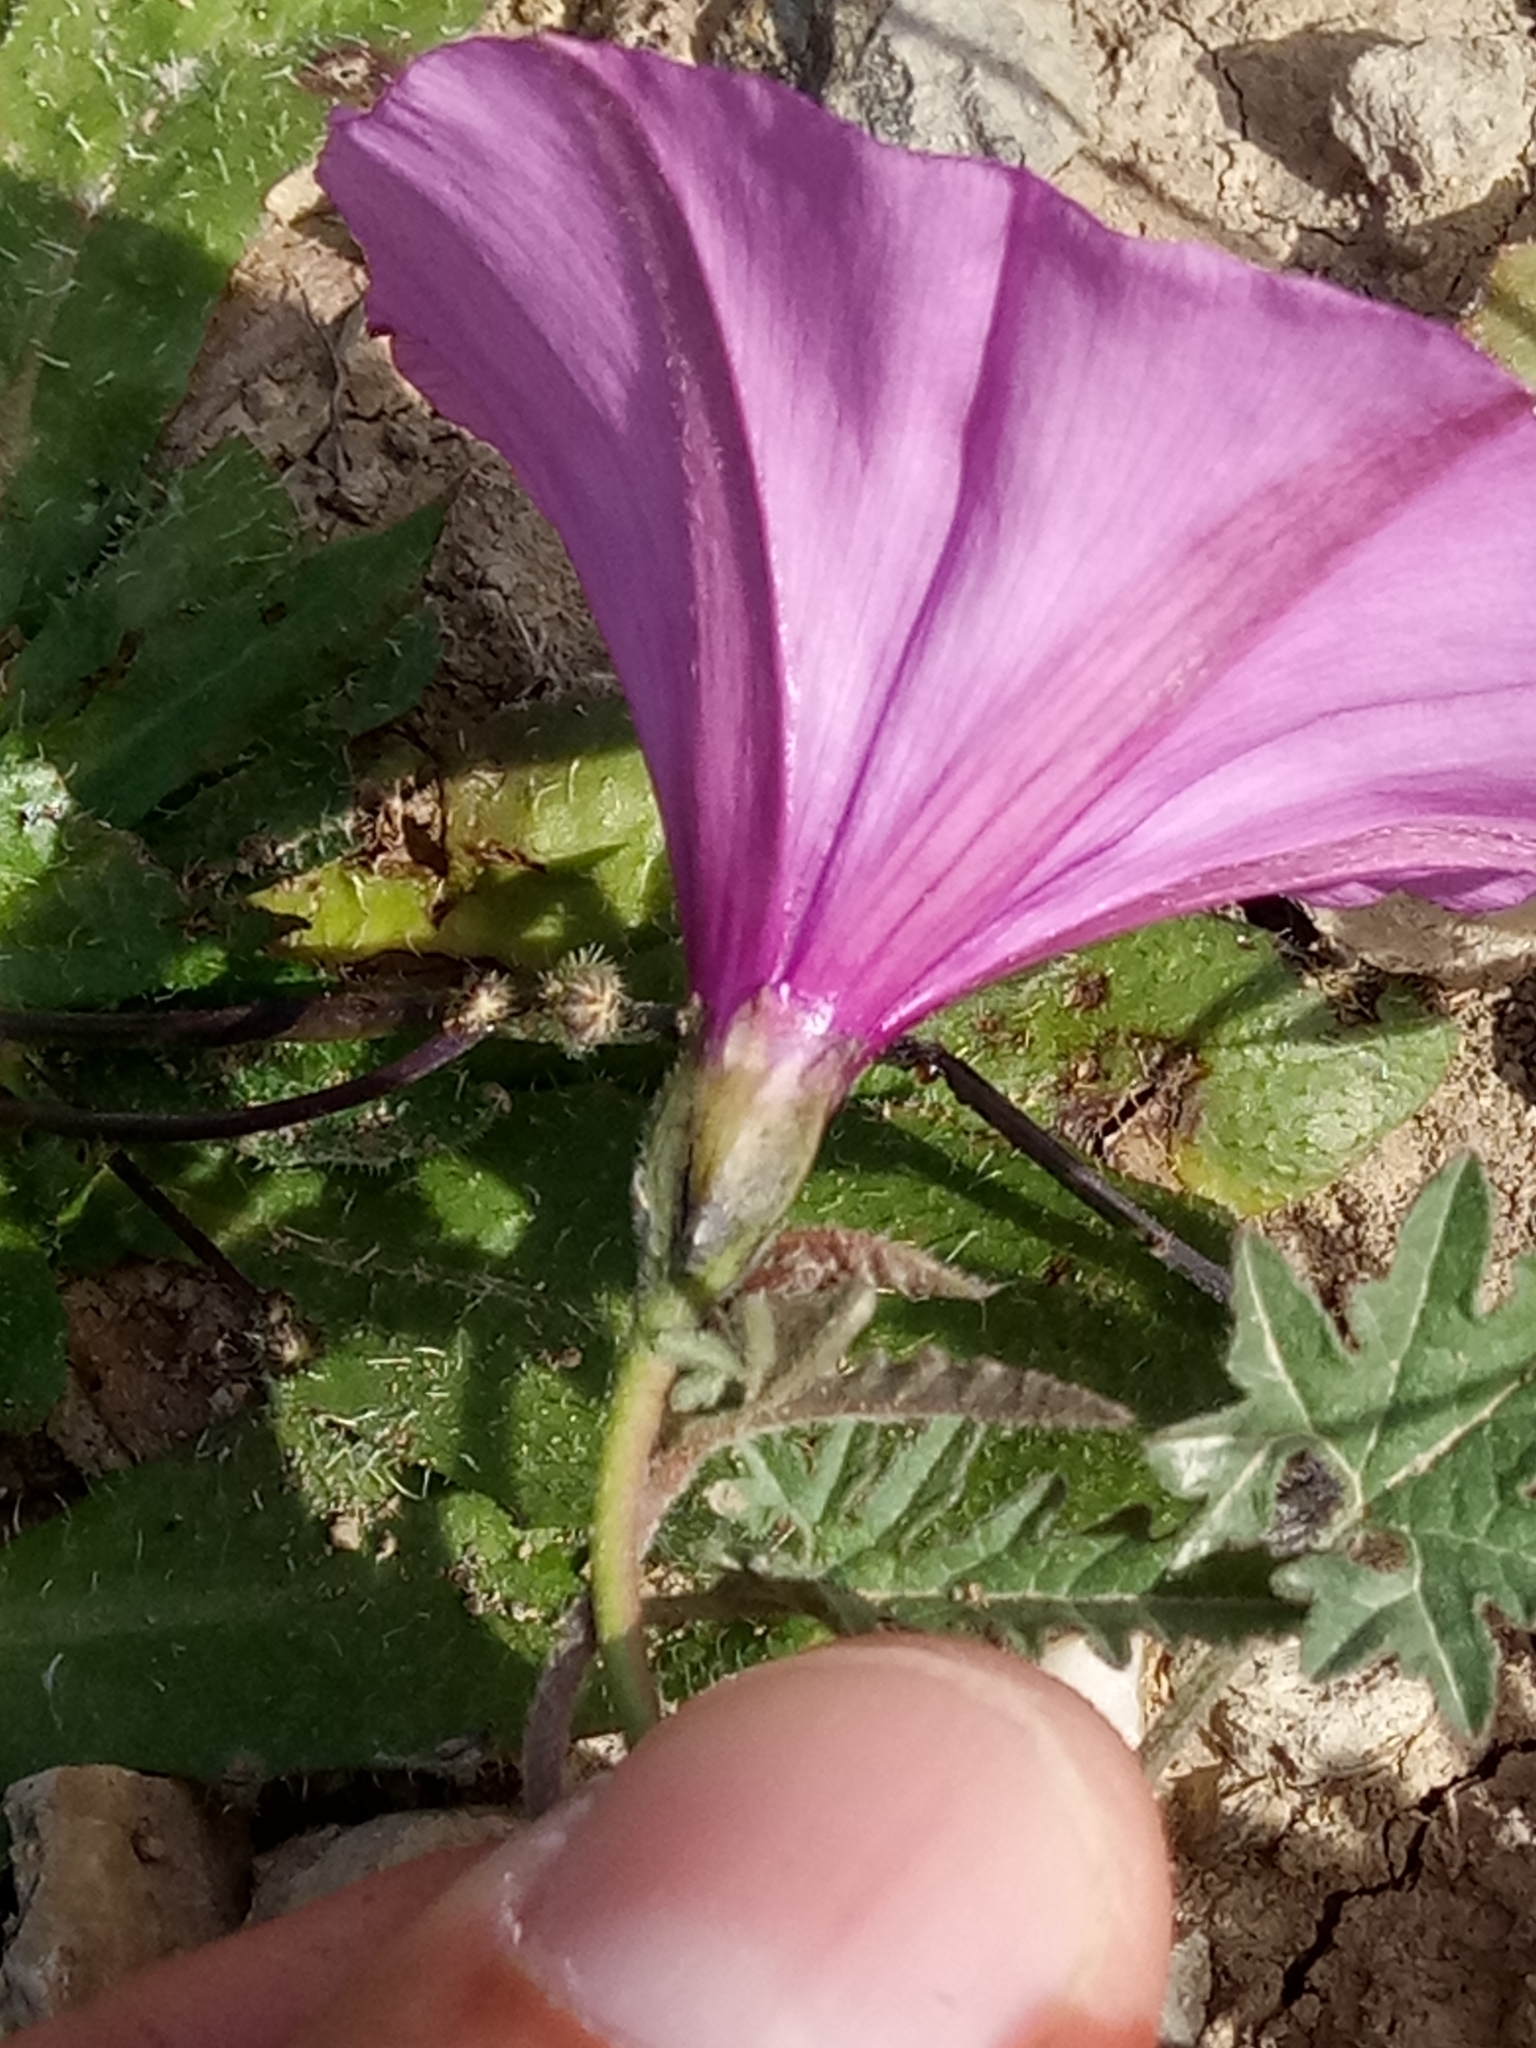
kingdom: Plantae
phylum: Tracheophyta
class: Magnoliopsida
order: Solanales
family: Convolvulaceae
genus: Convolvulus
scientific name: Convolvulus althaeoides
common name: Mallow bindweed
